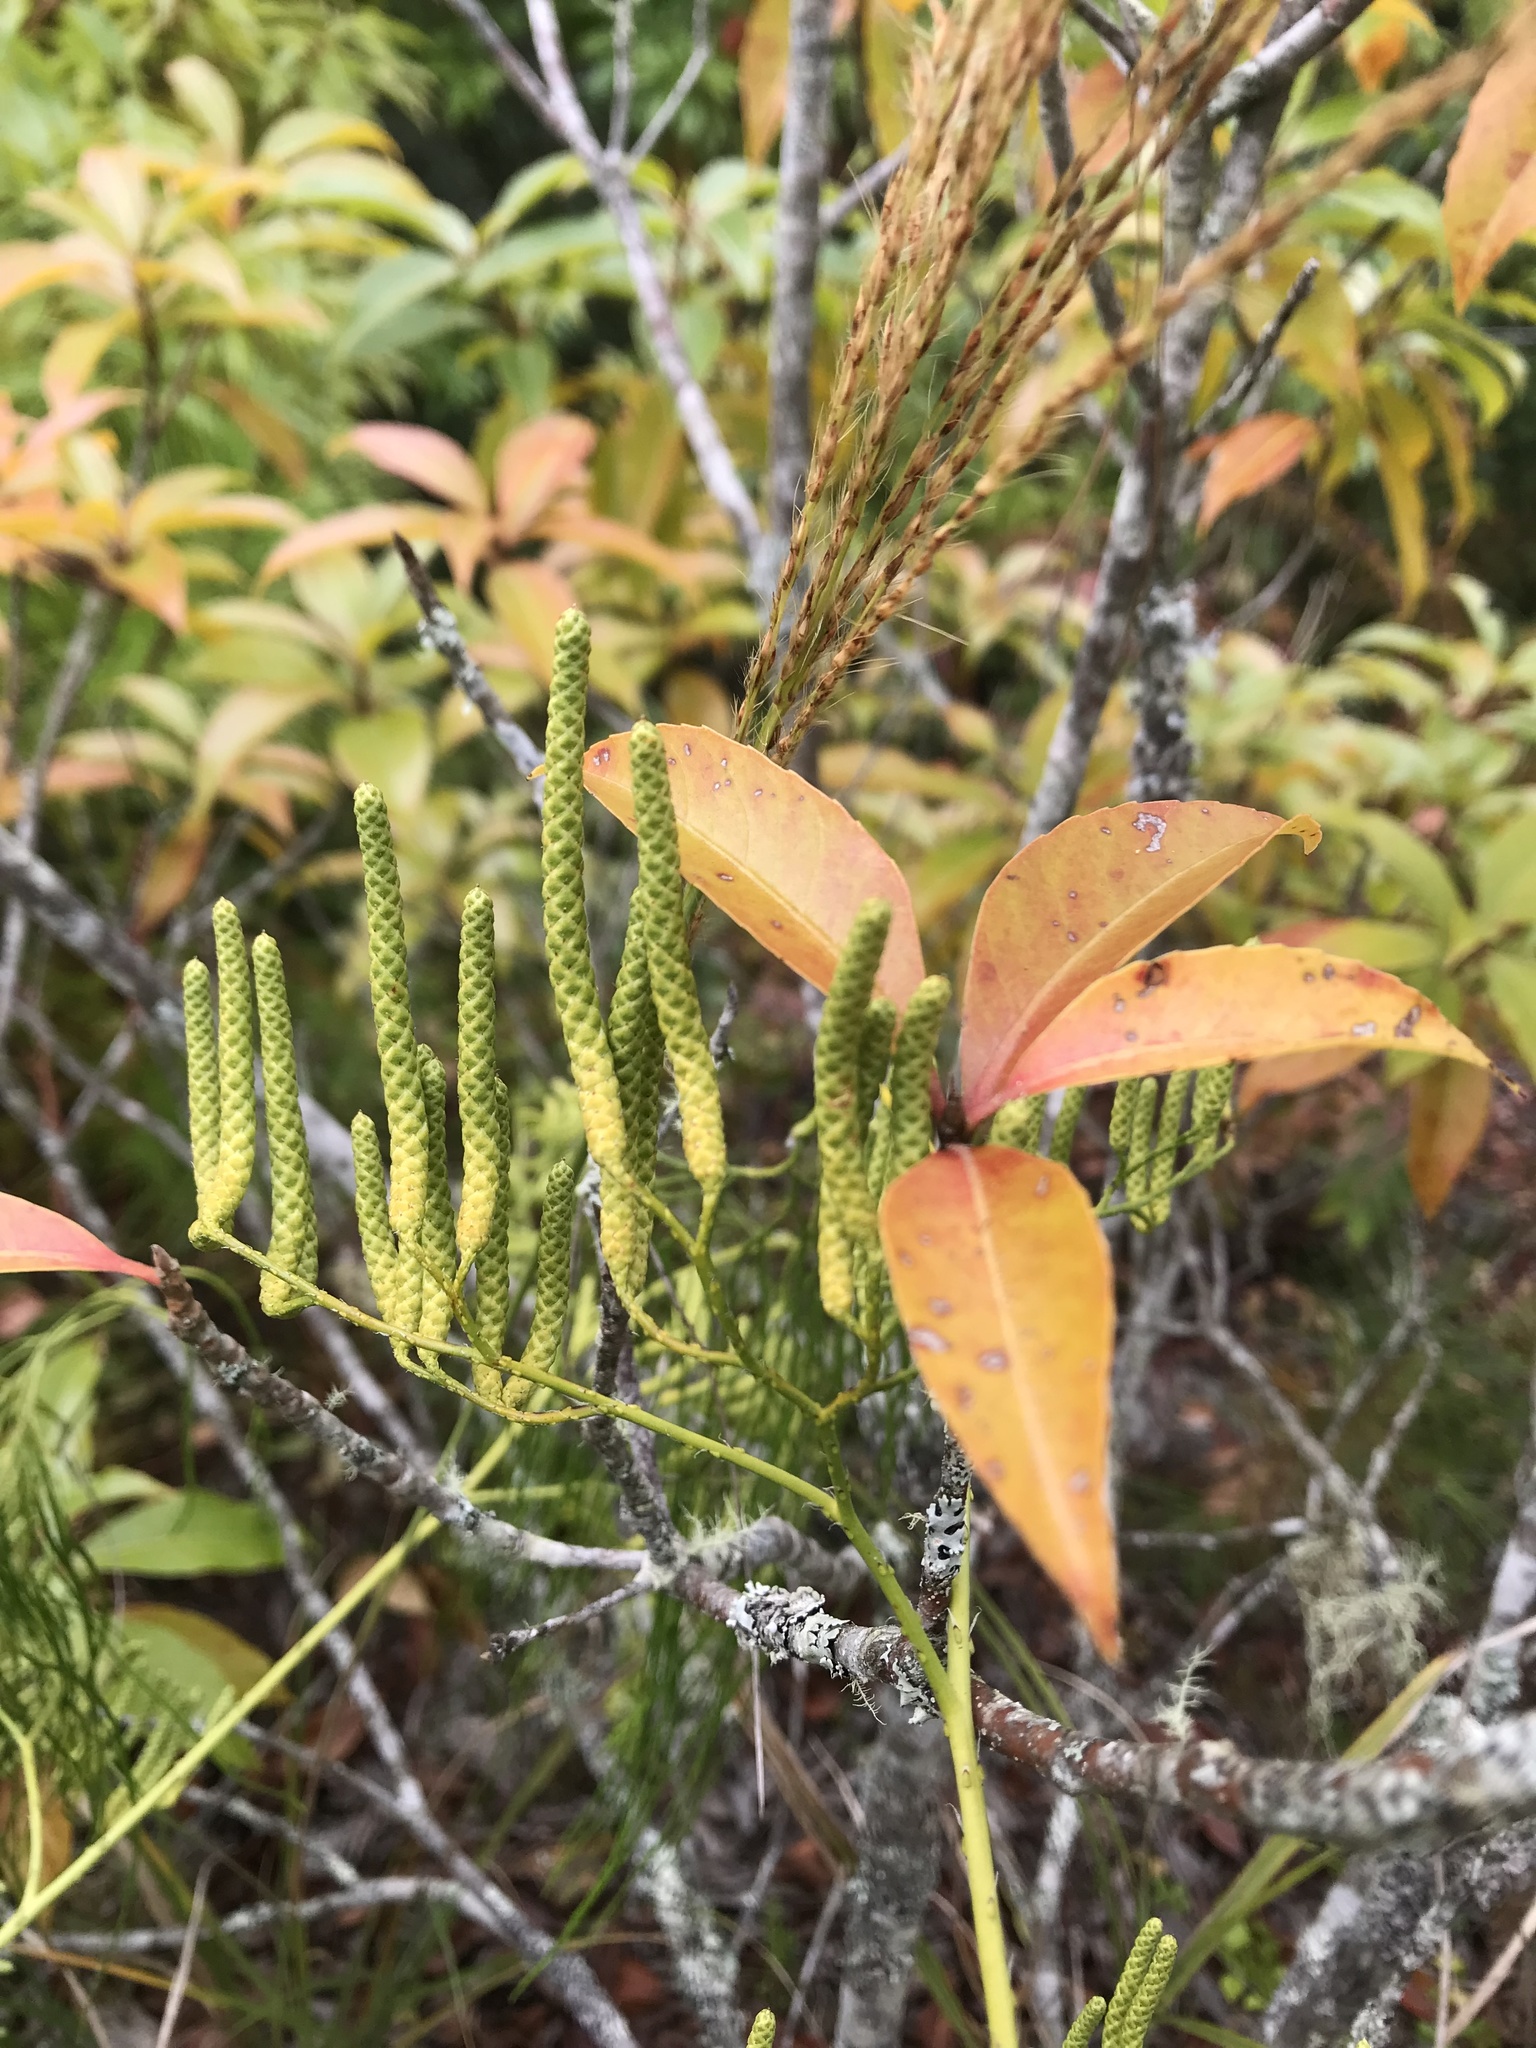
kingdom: Plantae
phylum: Tracheophyta
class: Lycopodiopsida
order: Lycopodiales
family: Lycopodiaceae
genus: Lycopodiastrum
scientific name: Lycopodiastrum casuarinoides
